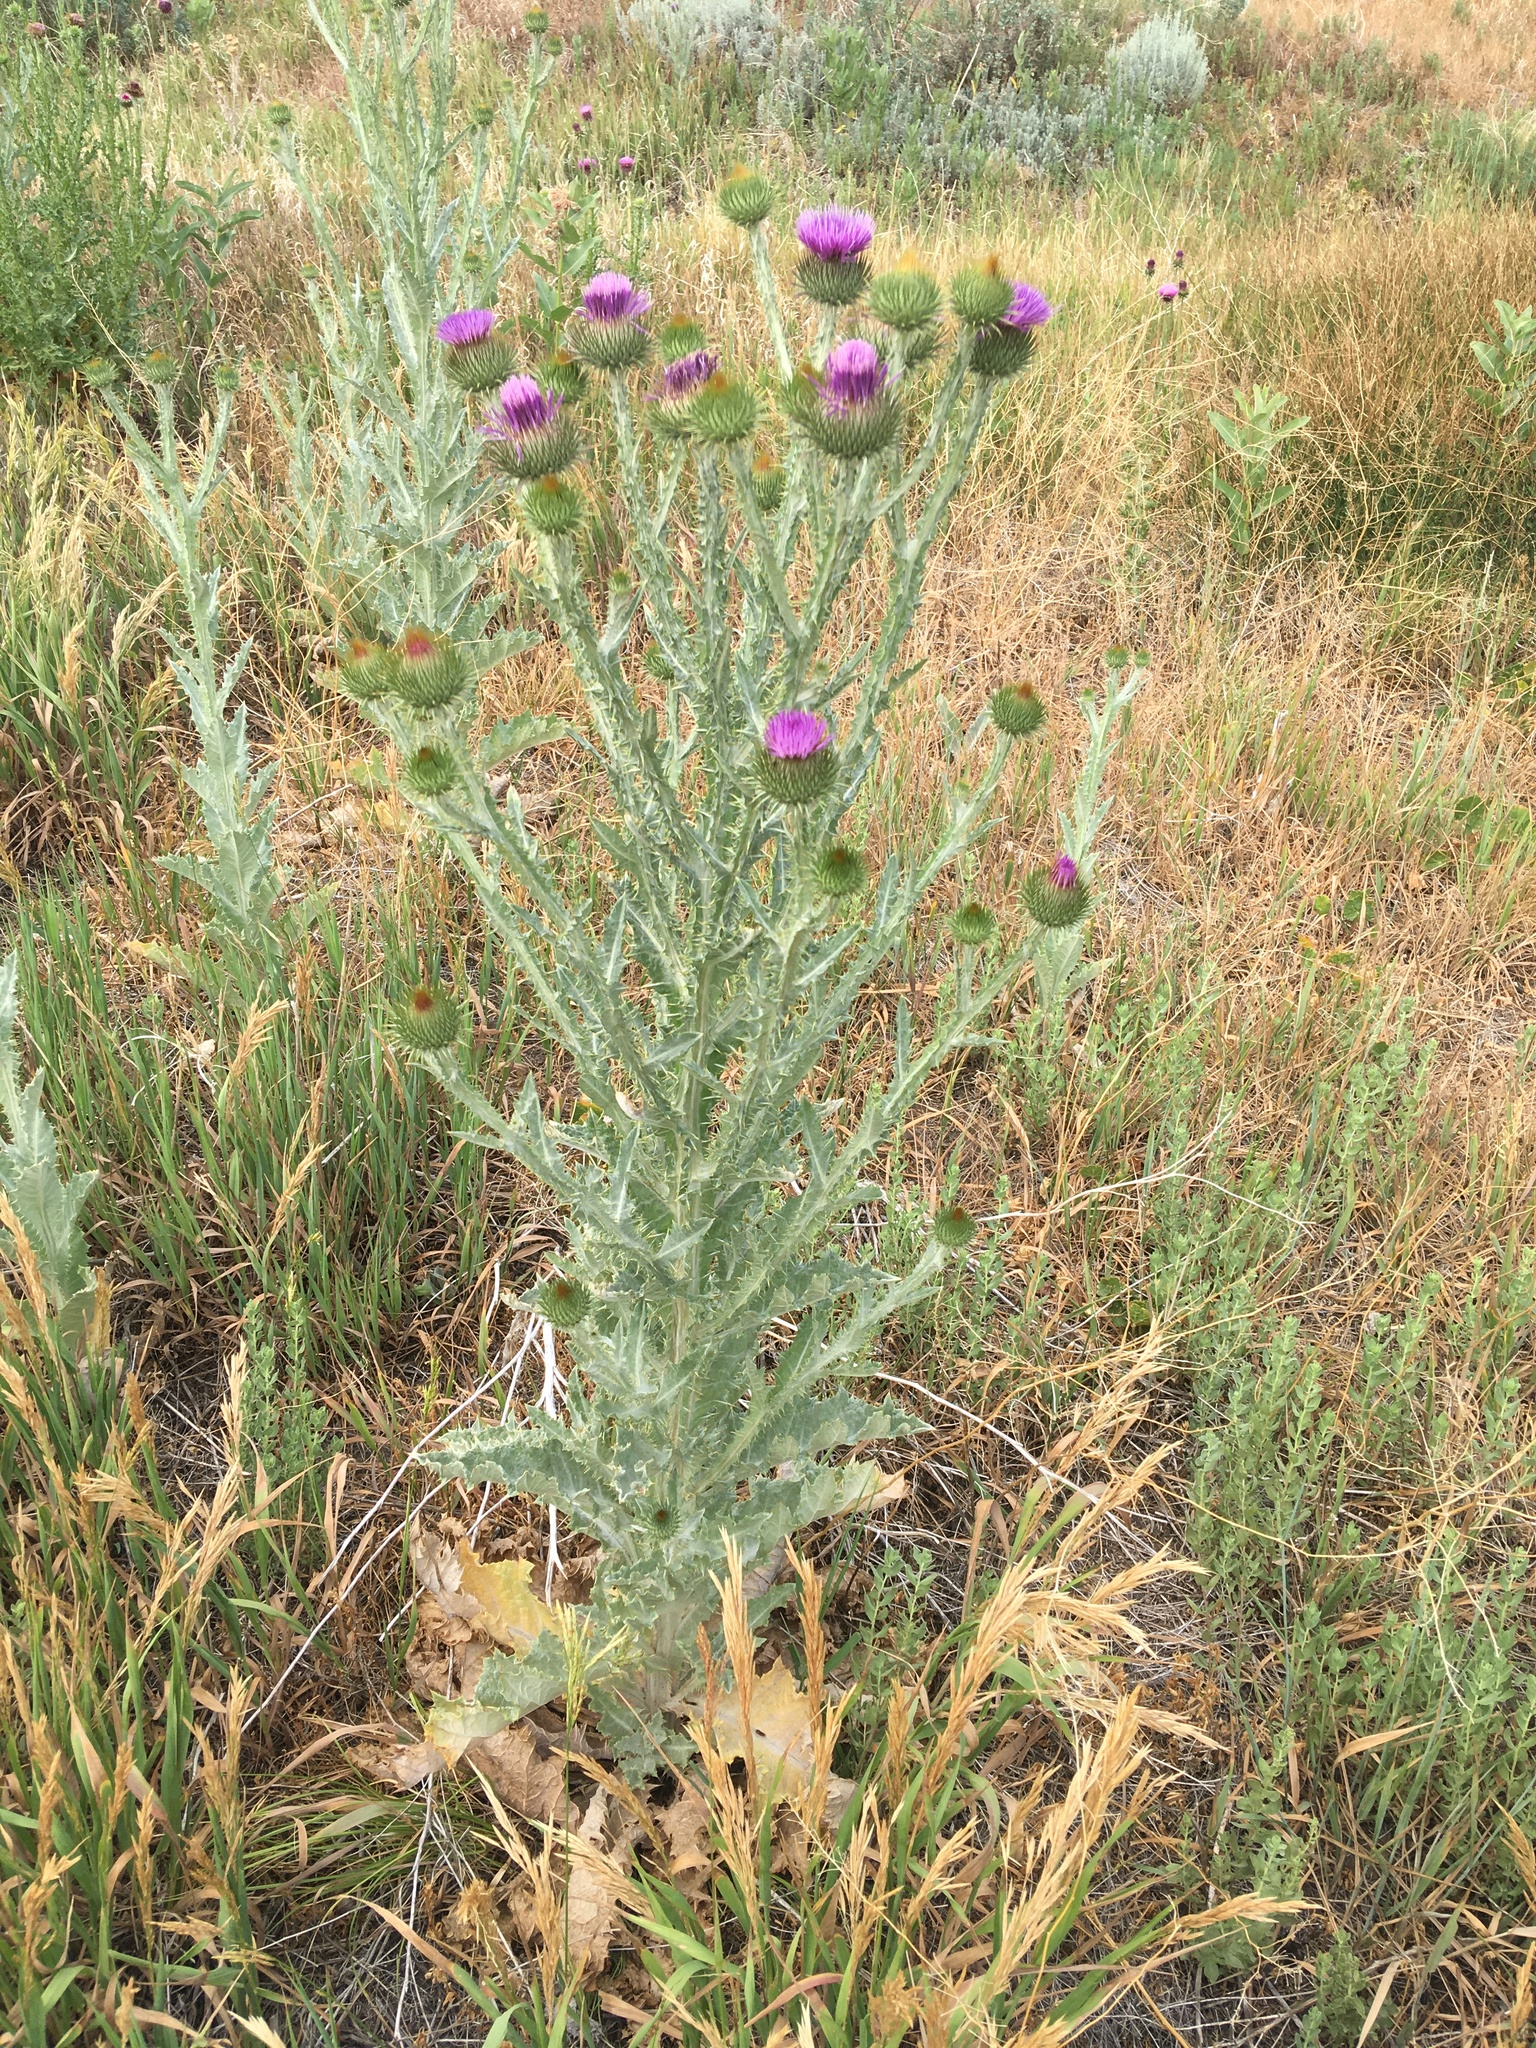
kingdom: Plantae
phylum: Tracheophyta
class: Magnoliopsida
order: Asterales
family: Asteraceae
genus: Onopordum
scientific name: Onopordum acanthium
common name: Scotch thistle
